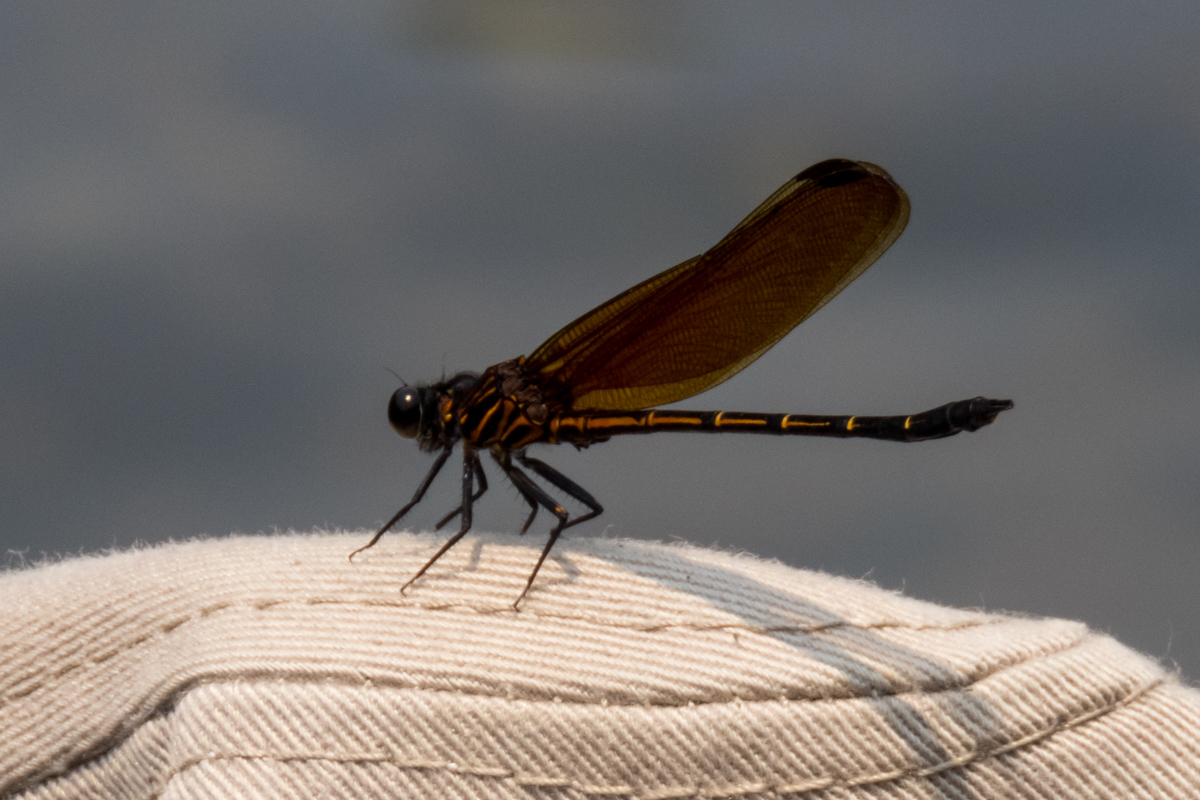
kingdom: Animalia
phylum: Arthropoda
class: Insecta
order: Odonata
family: Euphaeidae
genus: Dysphaea
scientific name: Dysphaea gloriosa
